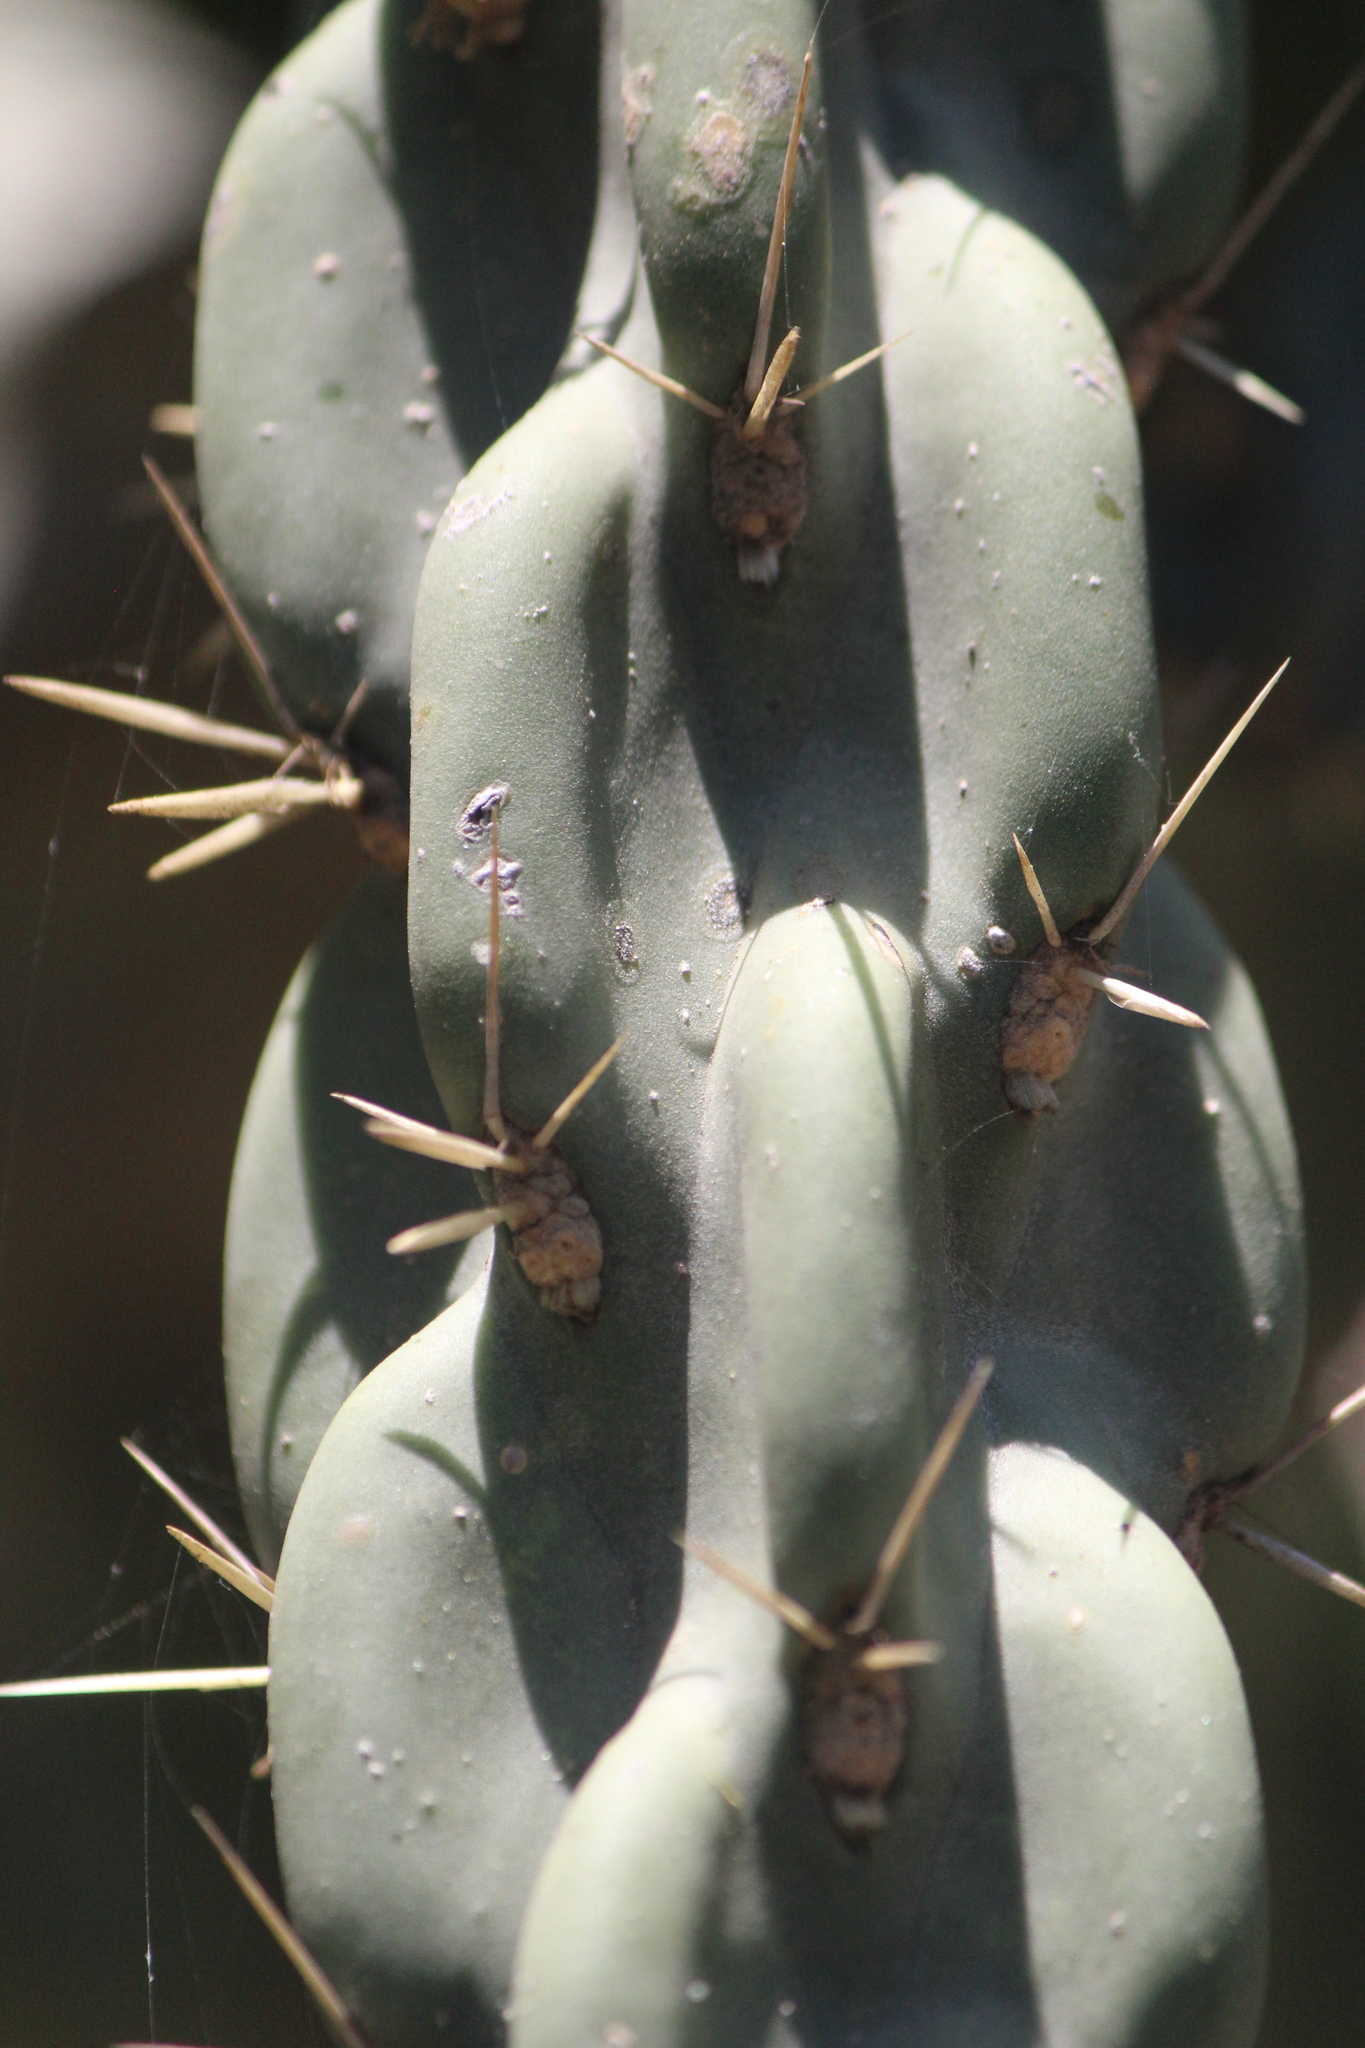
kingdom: Plantae
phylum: Tracheophyta
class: Magnoliopsida
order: Caryophyllales
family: Cactaceae
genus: Cylindropuntia
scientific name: Cylindropuntia imbricata
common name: Candelabrum cactus
